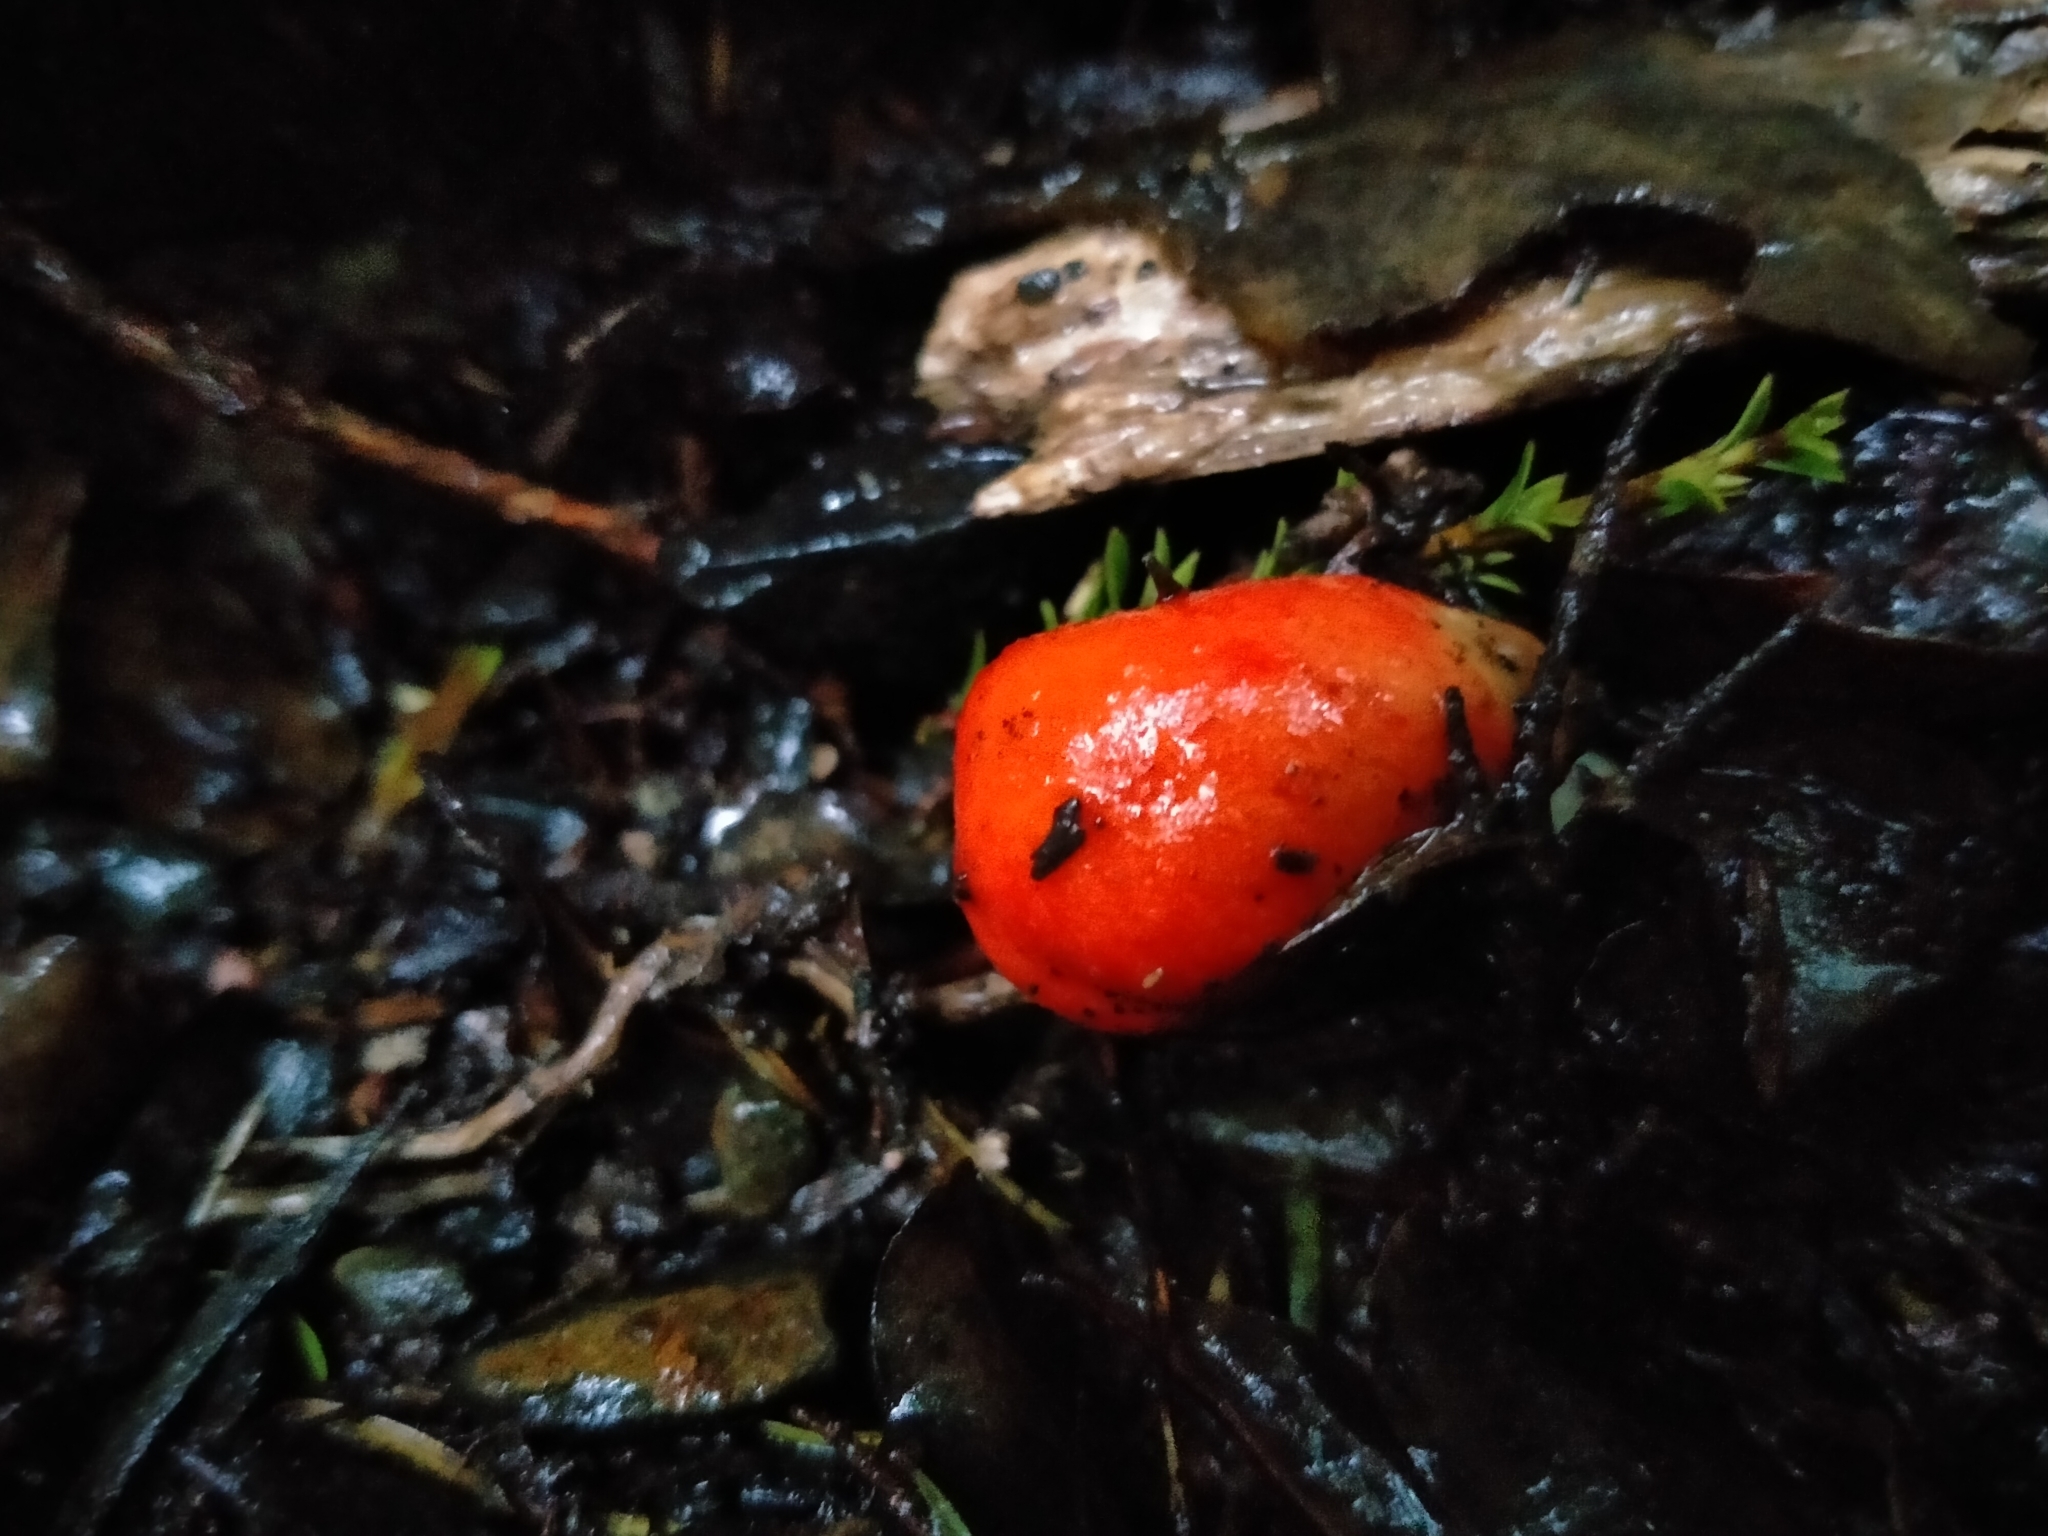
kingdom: Fungi
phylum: Basidiomycota
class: Agaricomycetes
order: Agaricales
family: Strophariaceae
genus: Leratiomyces
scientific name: Leratiomyces erythrocephalus
